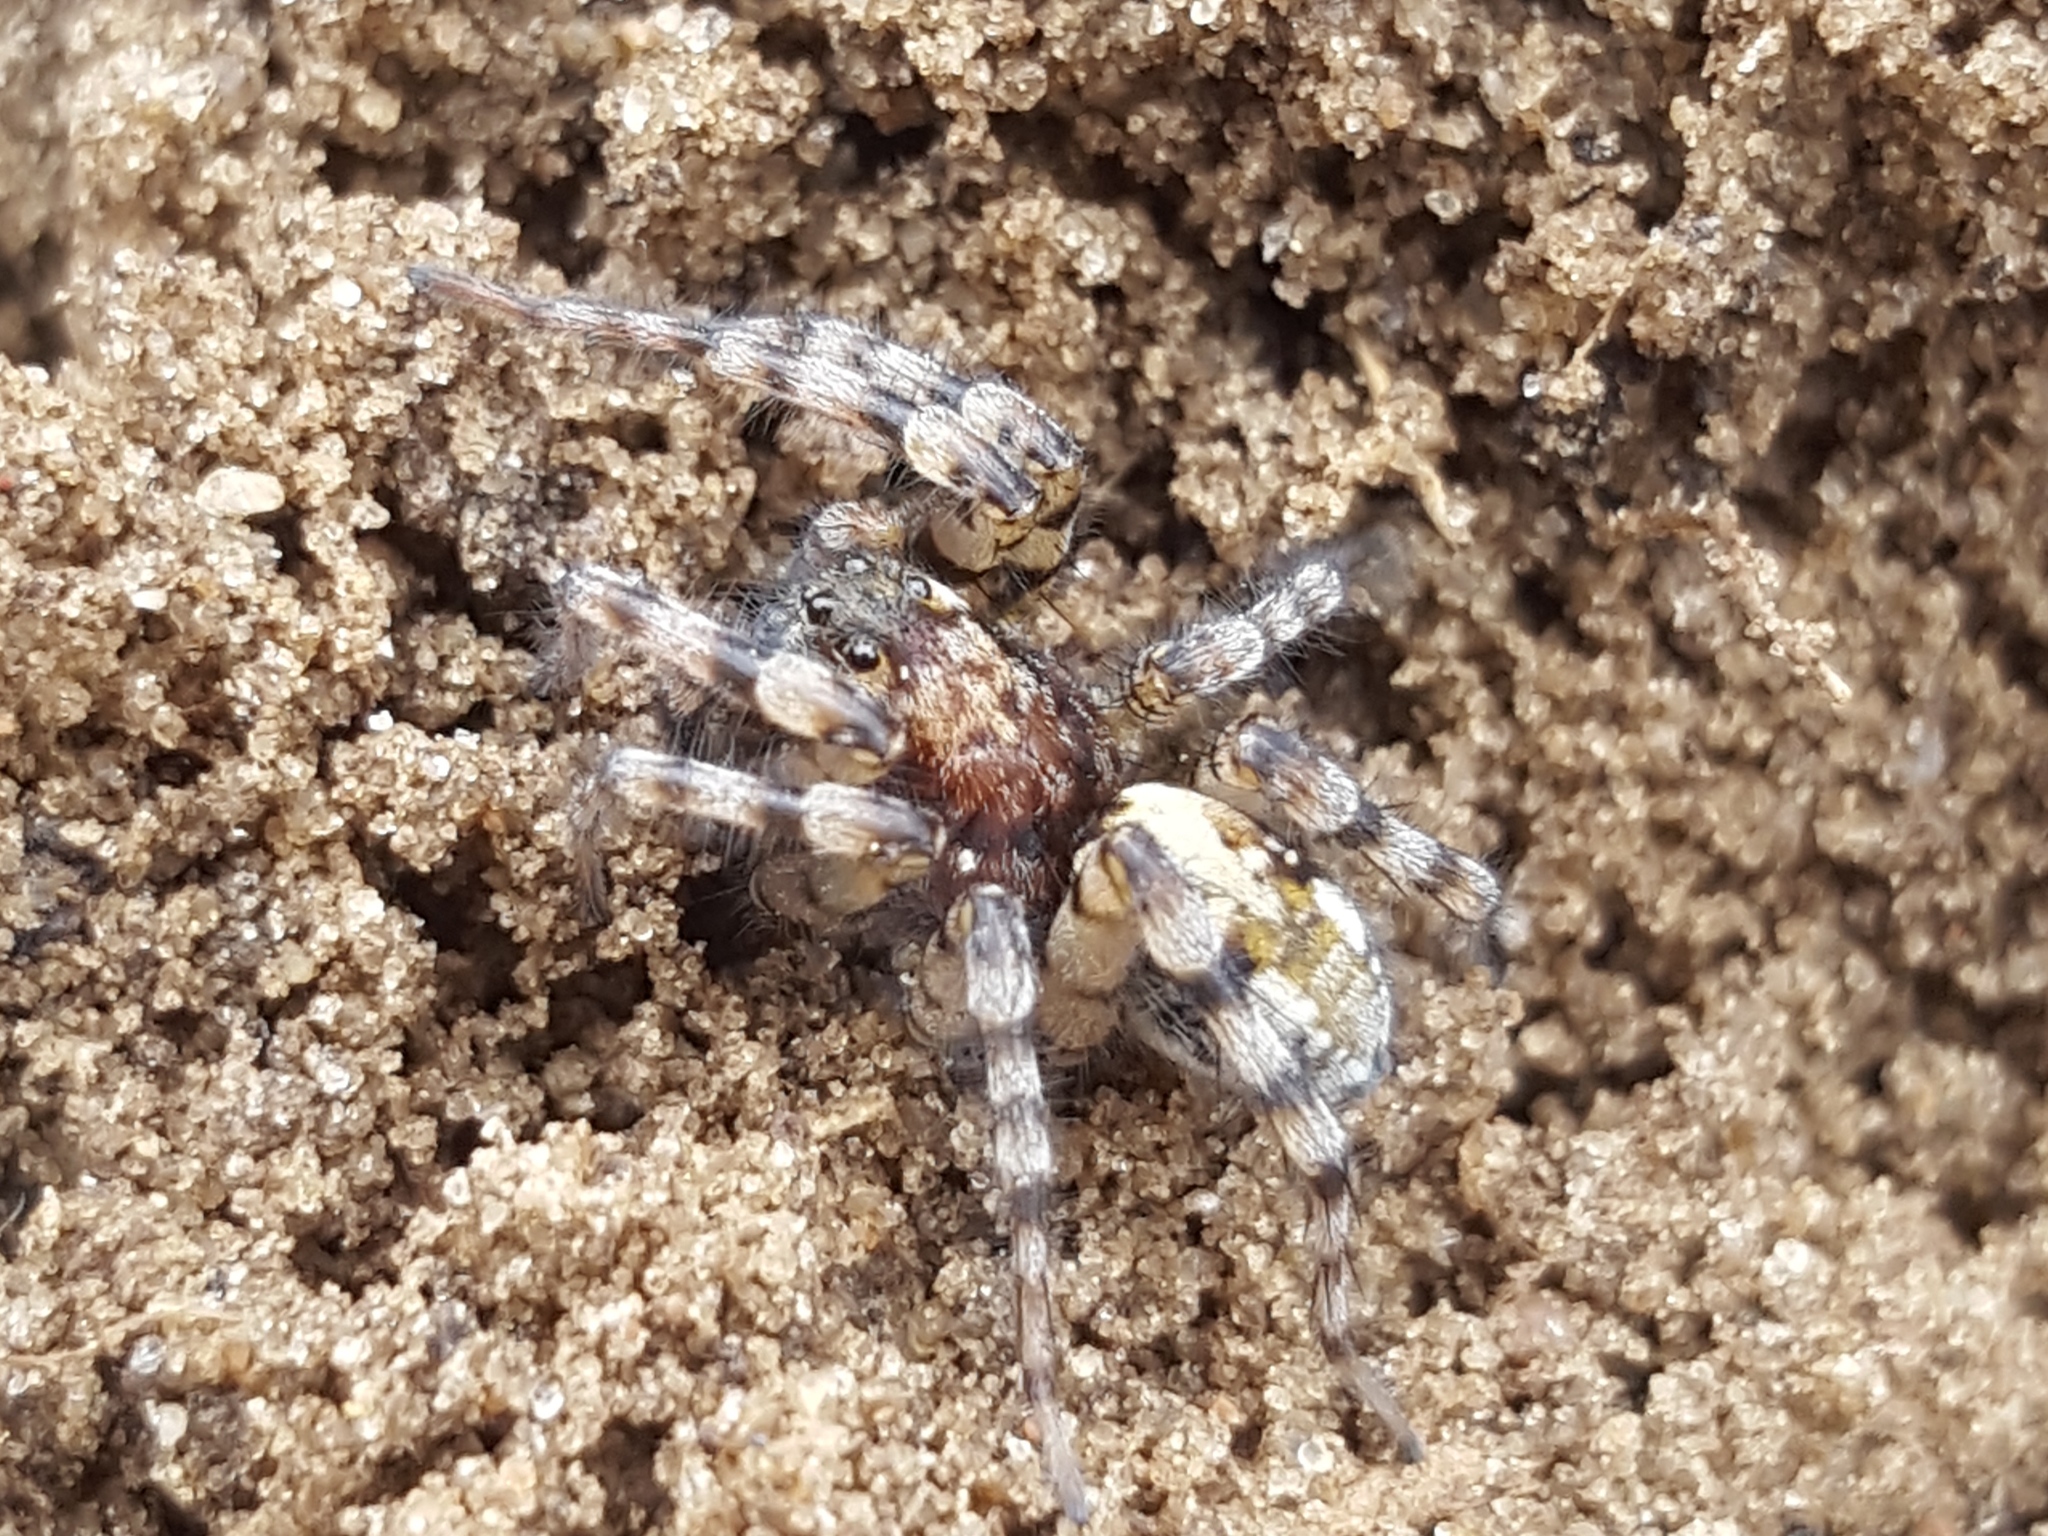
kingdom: Animalia
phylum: Arthropoda
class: Arachnida
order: Araneae
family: Lycosidae
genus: Arctosa
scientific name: Arctosa perita
